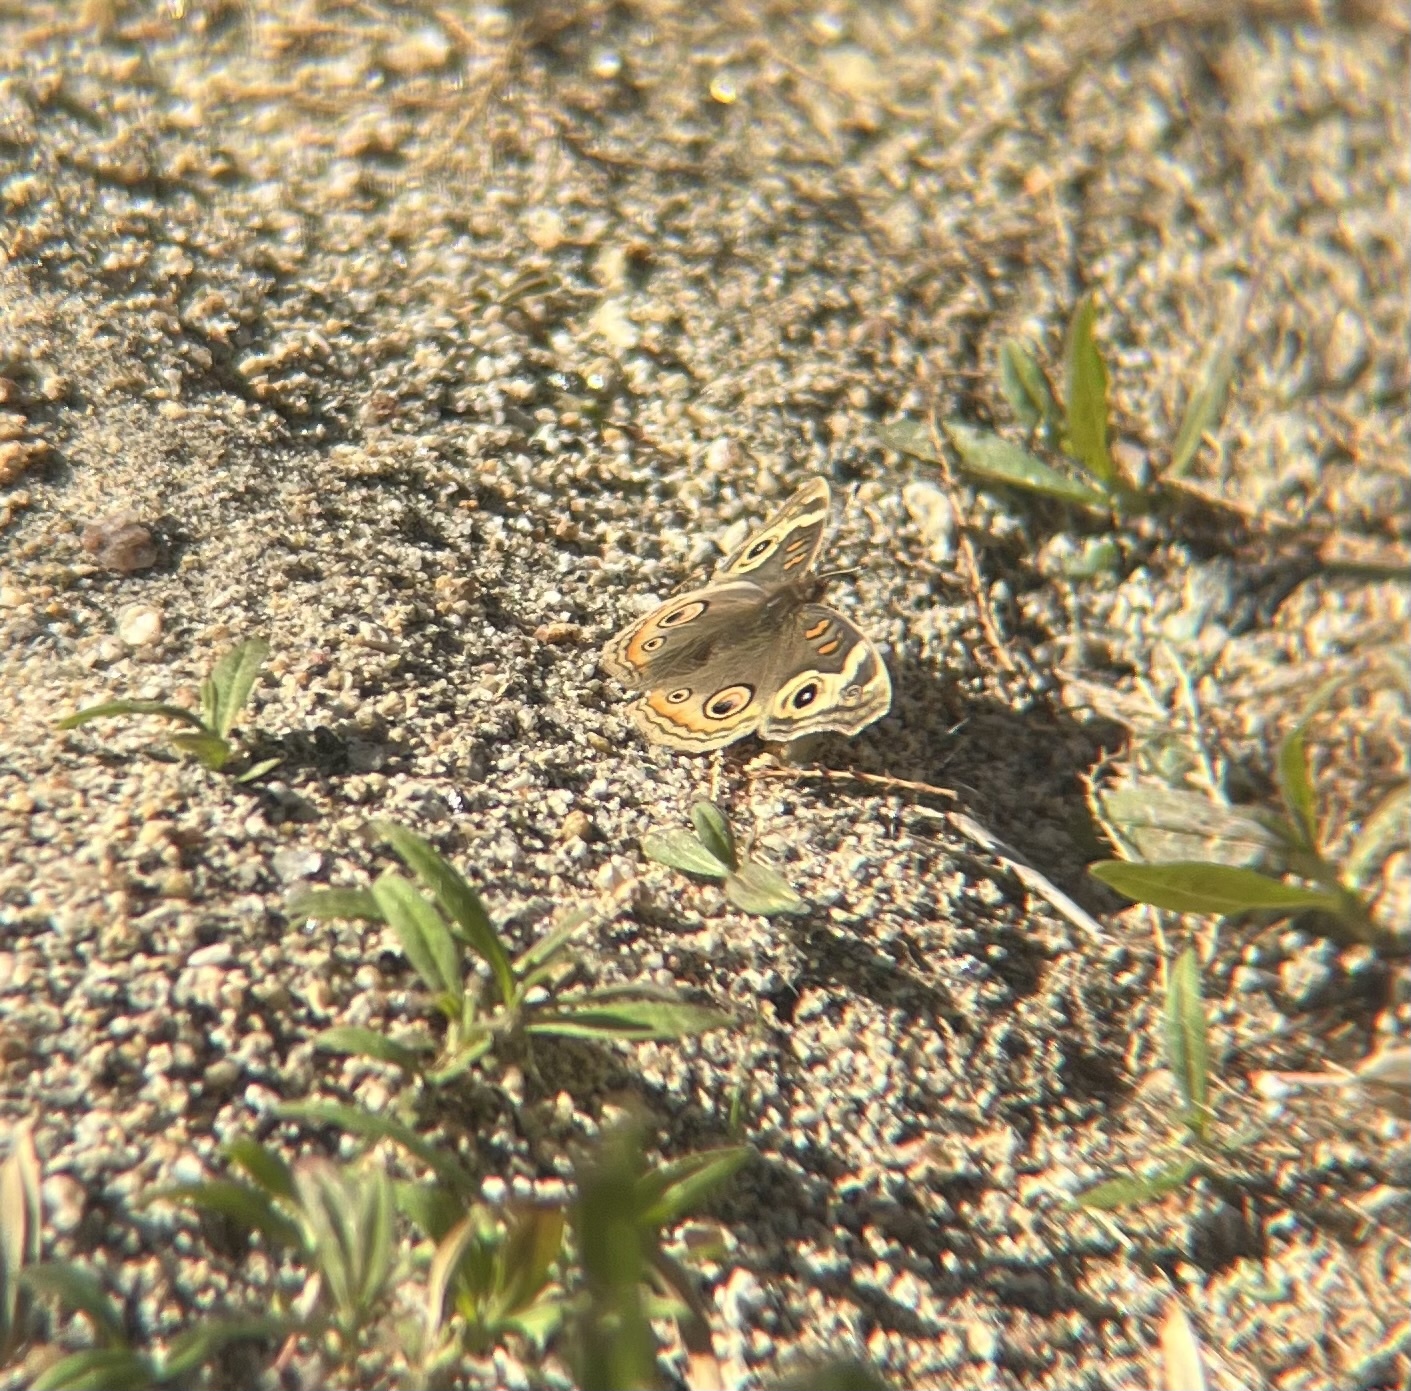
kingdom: Animalia
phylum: Arthropoda
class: Insecta
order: Lepidoptera
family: Nymphalidae
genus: Junonia
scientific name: Junonia grisea
